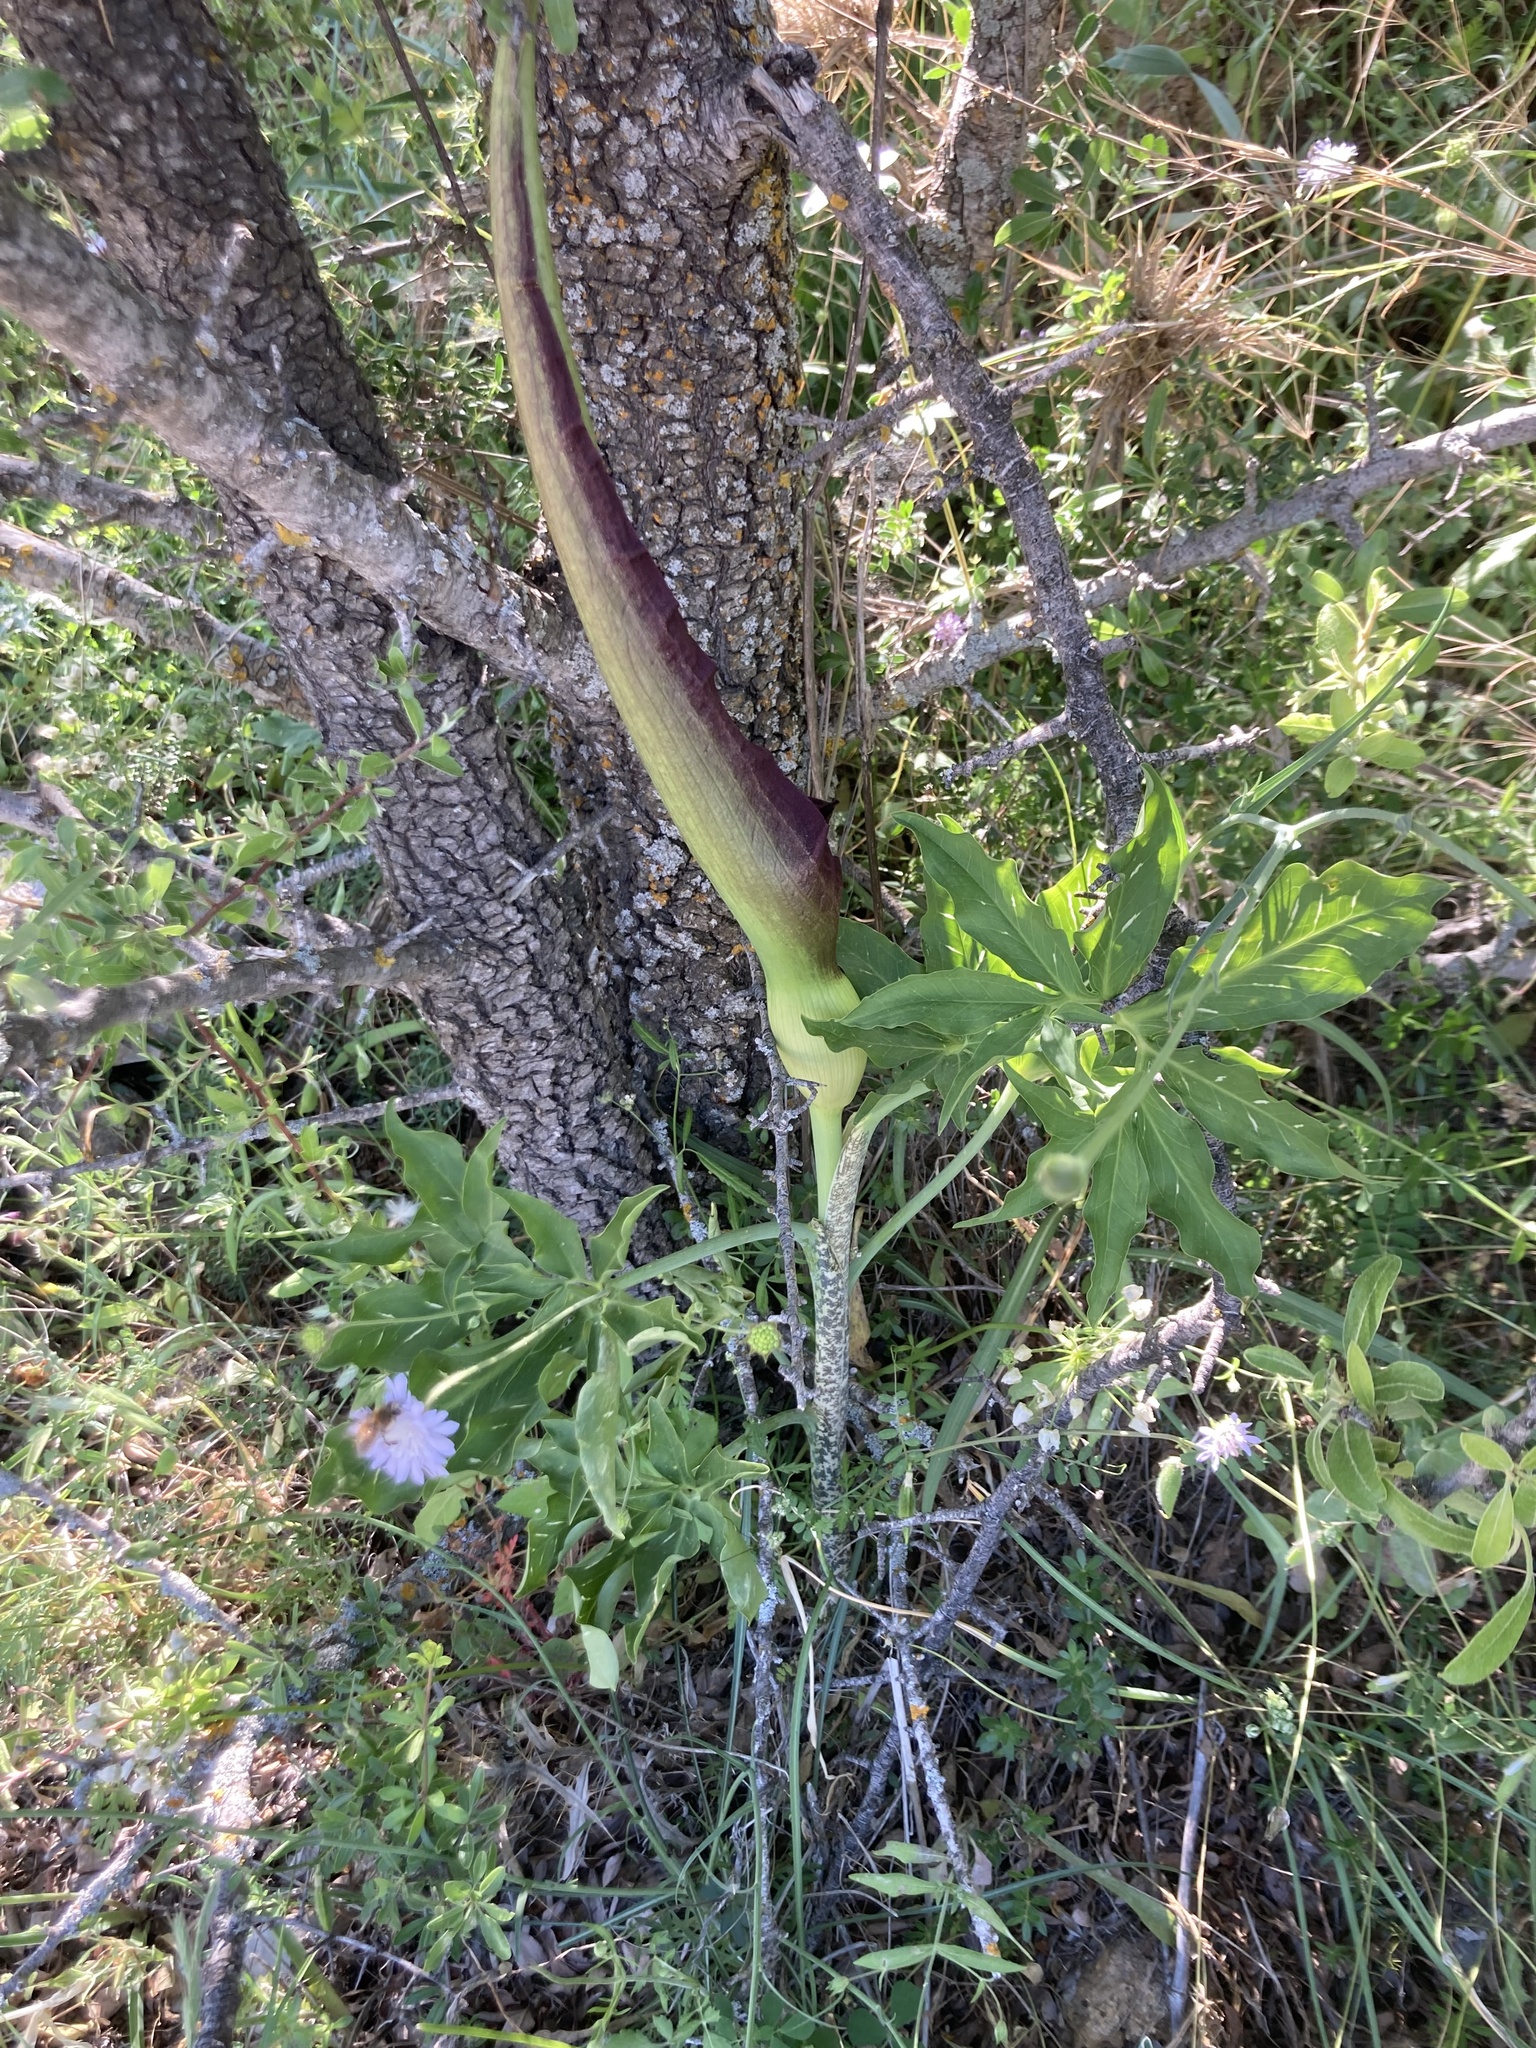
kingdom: Plantae
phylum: Tracheophyta
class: Liliopsida
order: Alismatales
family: Araceae
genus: Dracunculus
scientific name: Dracunculus vulgaris
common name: Dragon arum
